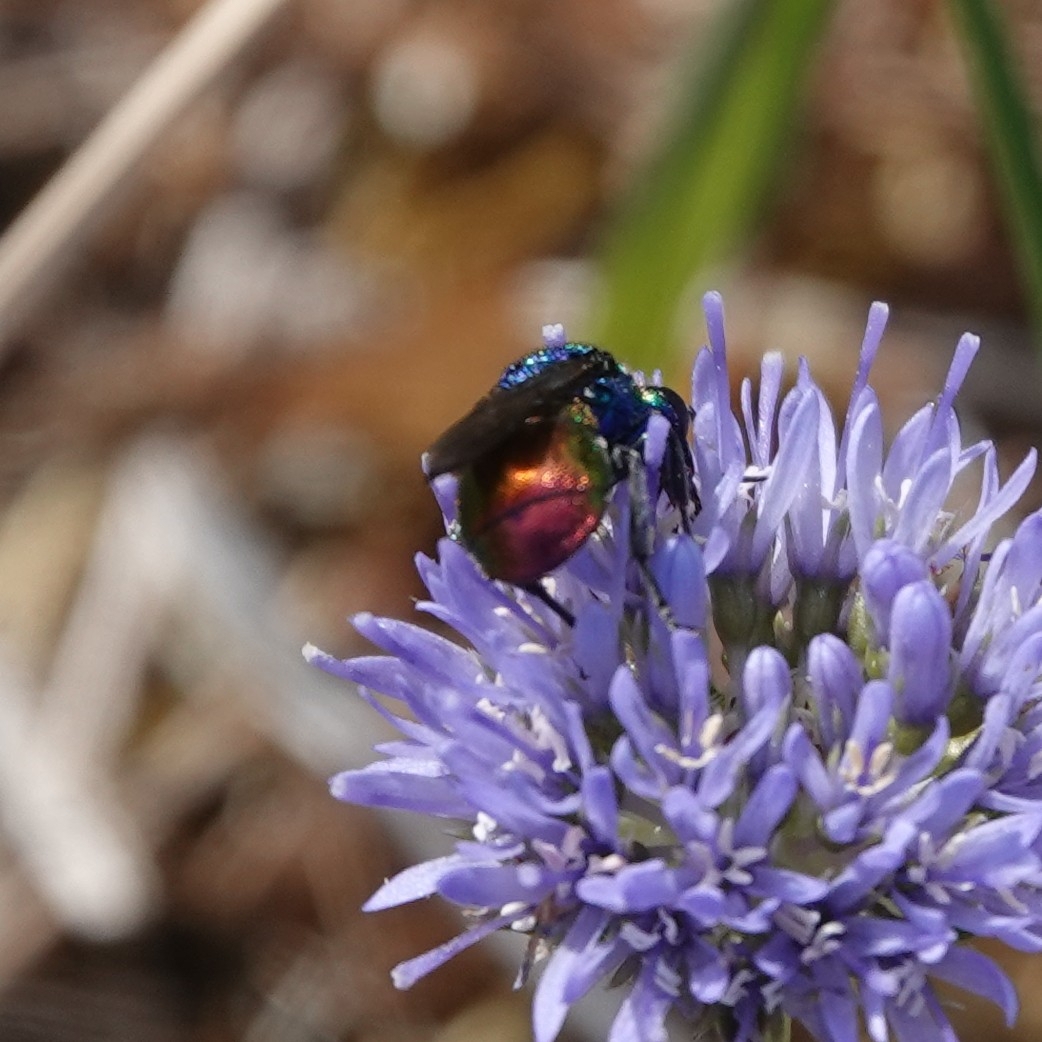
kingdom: Animalia
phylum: Arthropoda
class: Insecta
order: Hymenoptera
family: Chrysididae
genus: Hedychrum
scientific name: Hedychrum rutilans
